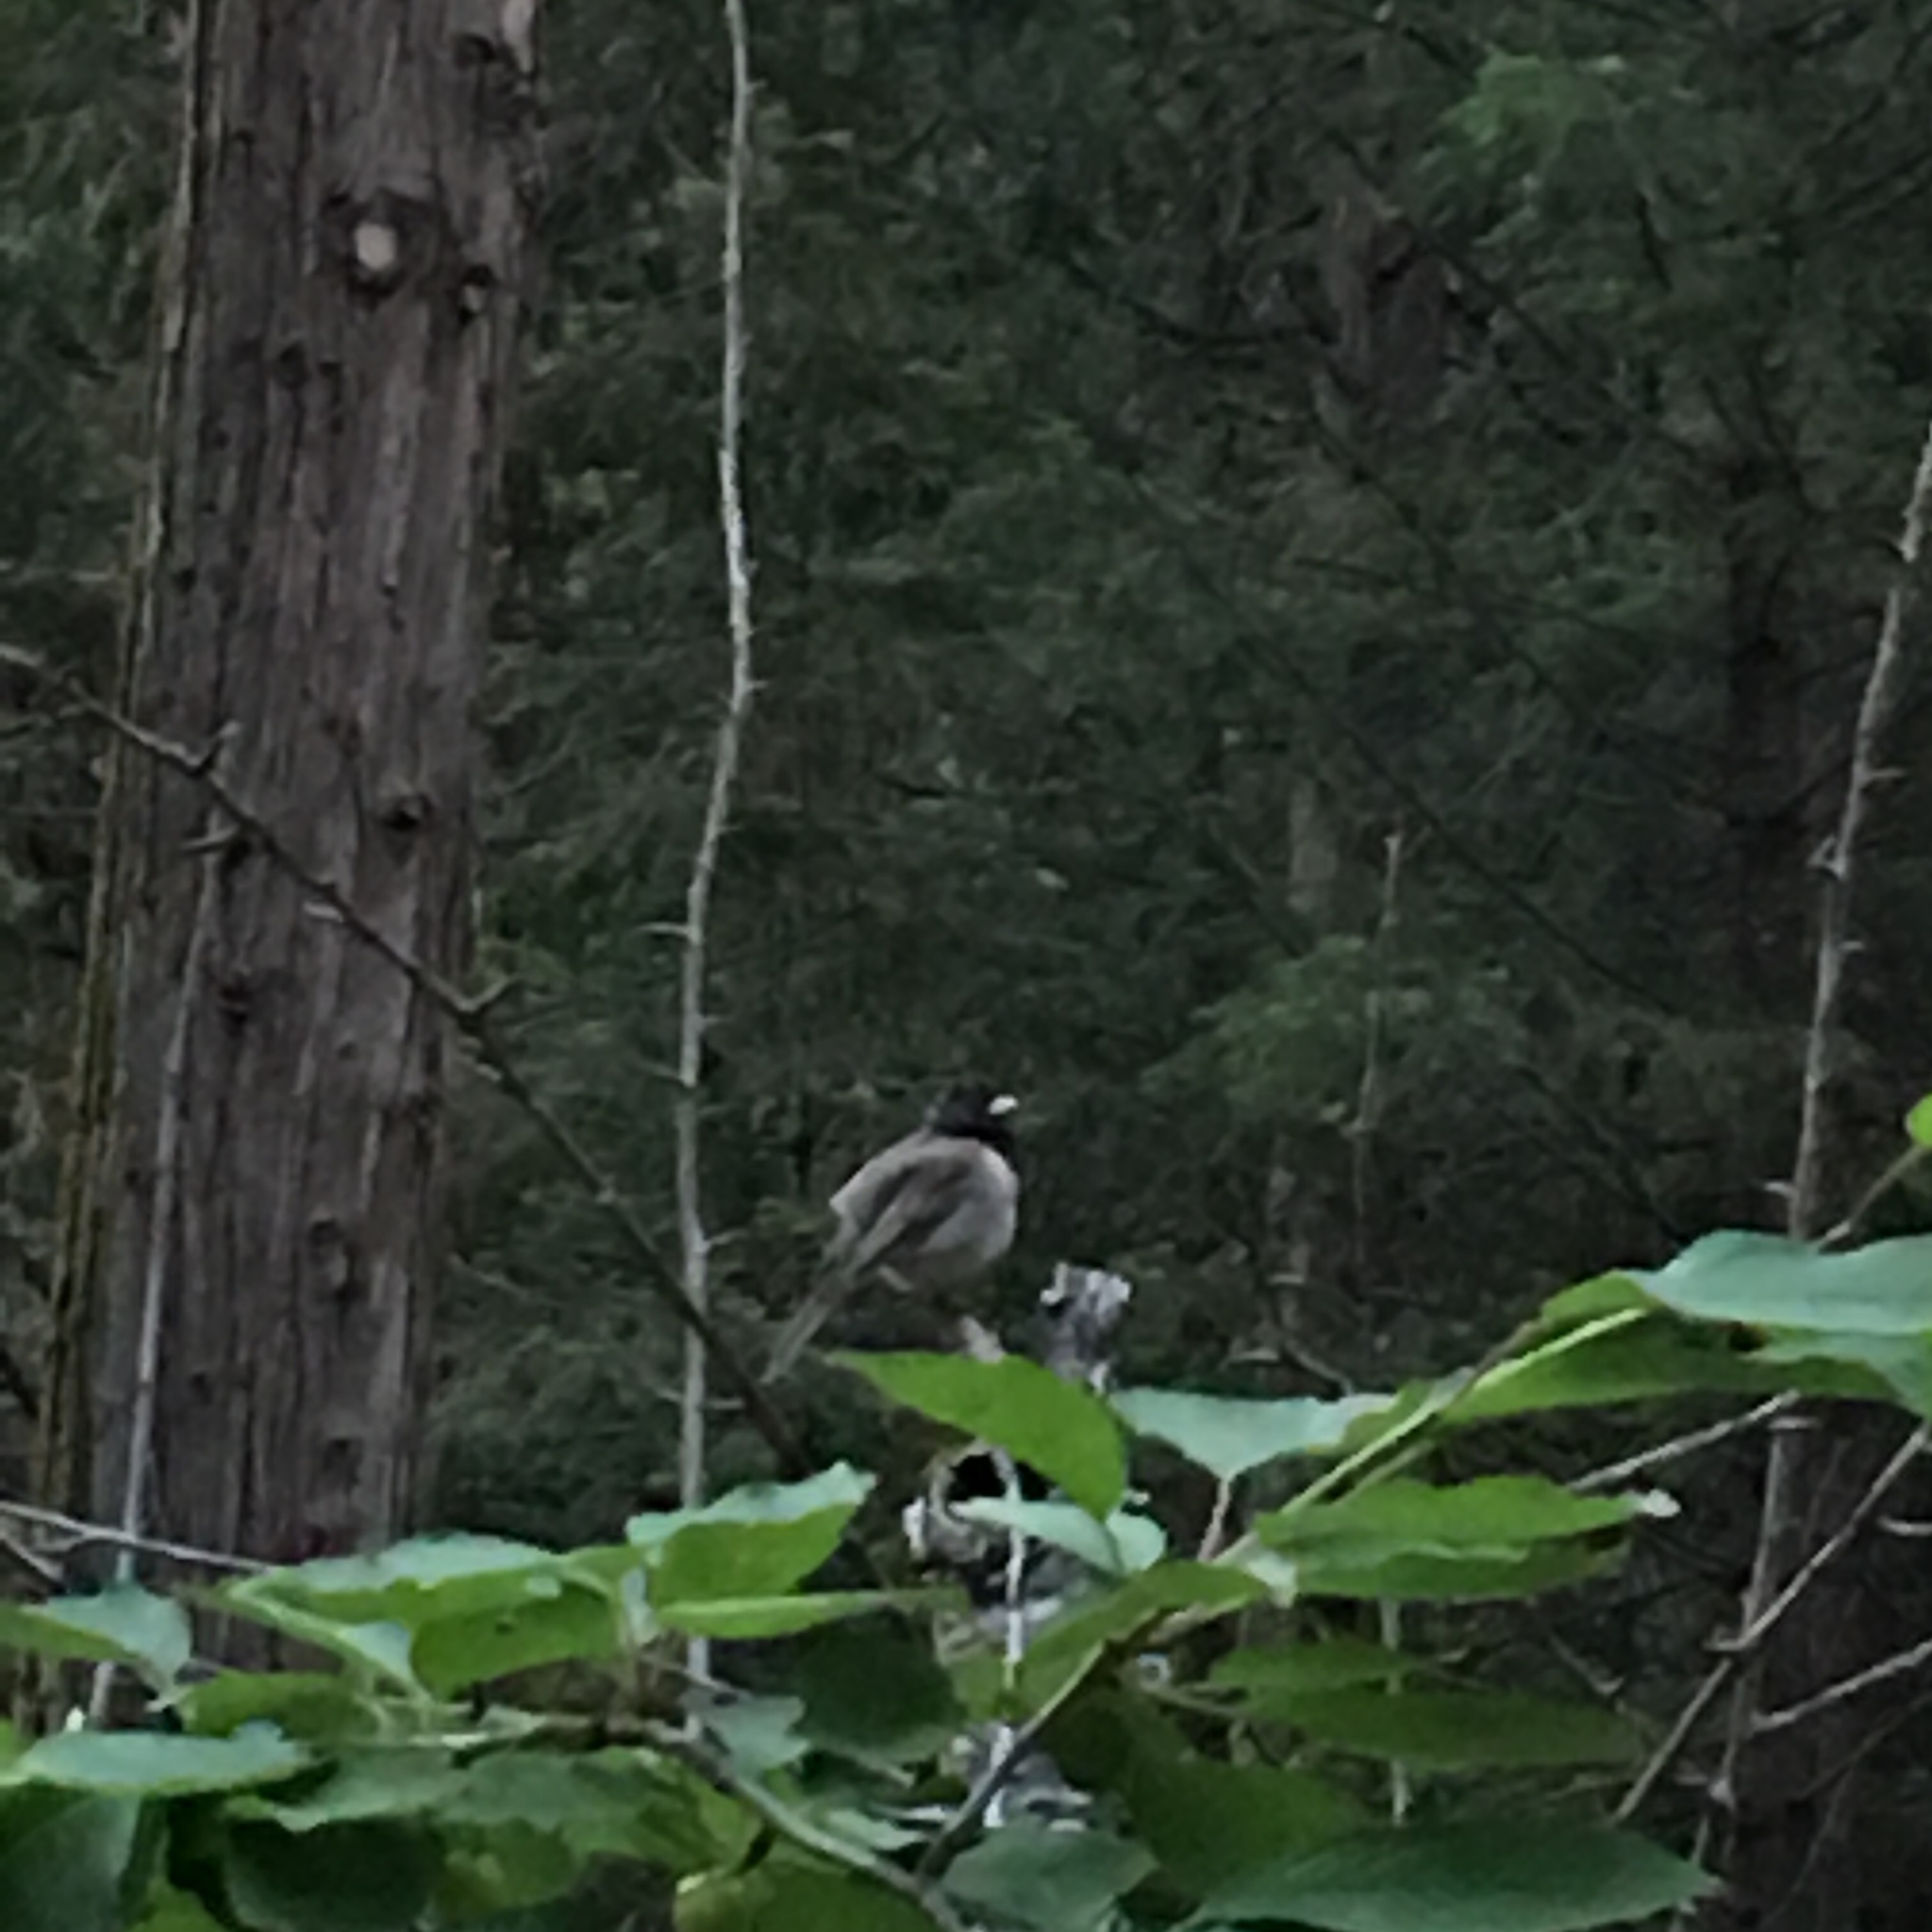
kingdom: Animalia
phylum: Chordata
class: Aves
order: Passeriformes
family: Passerellidae
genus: Junco
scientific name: Junco hyemalis
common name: Dark-eyed junco
